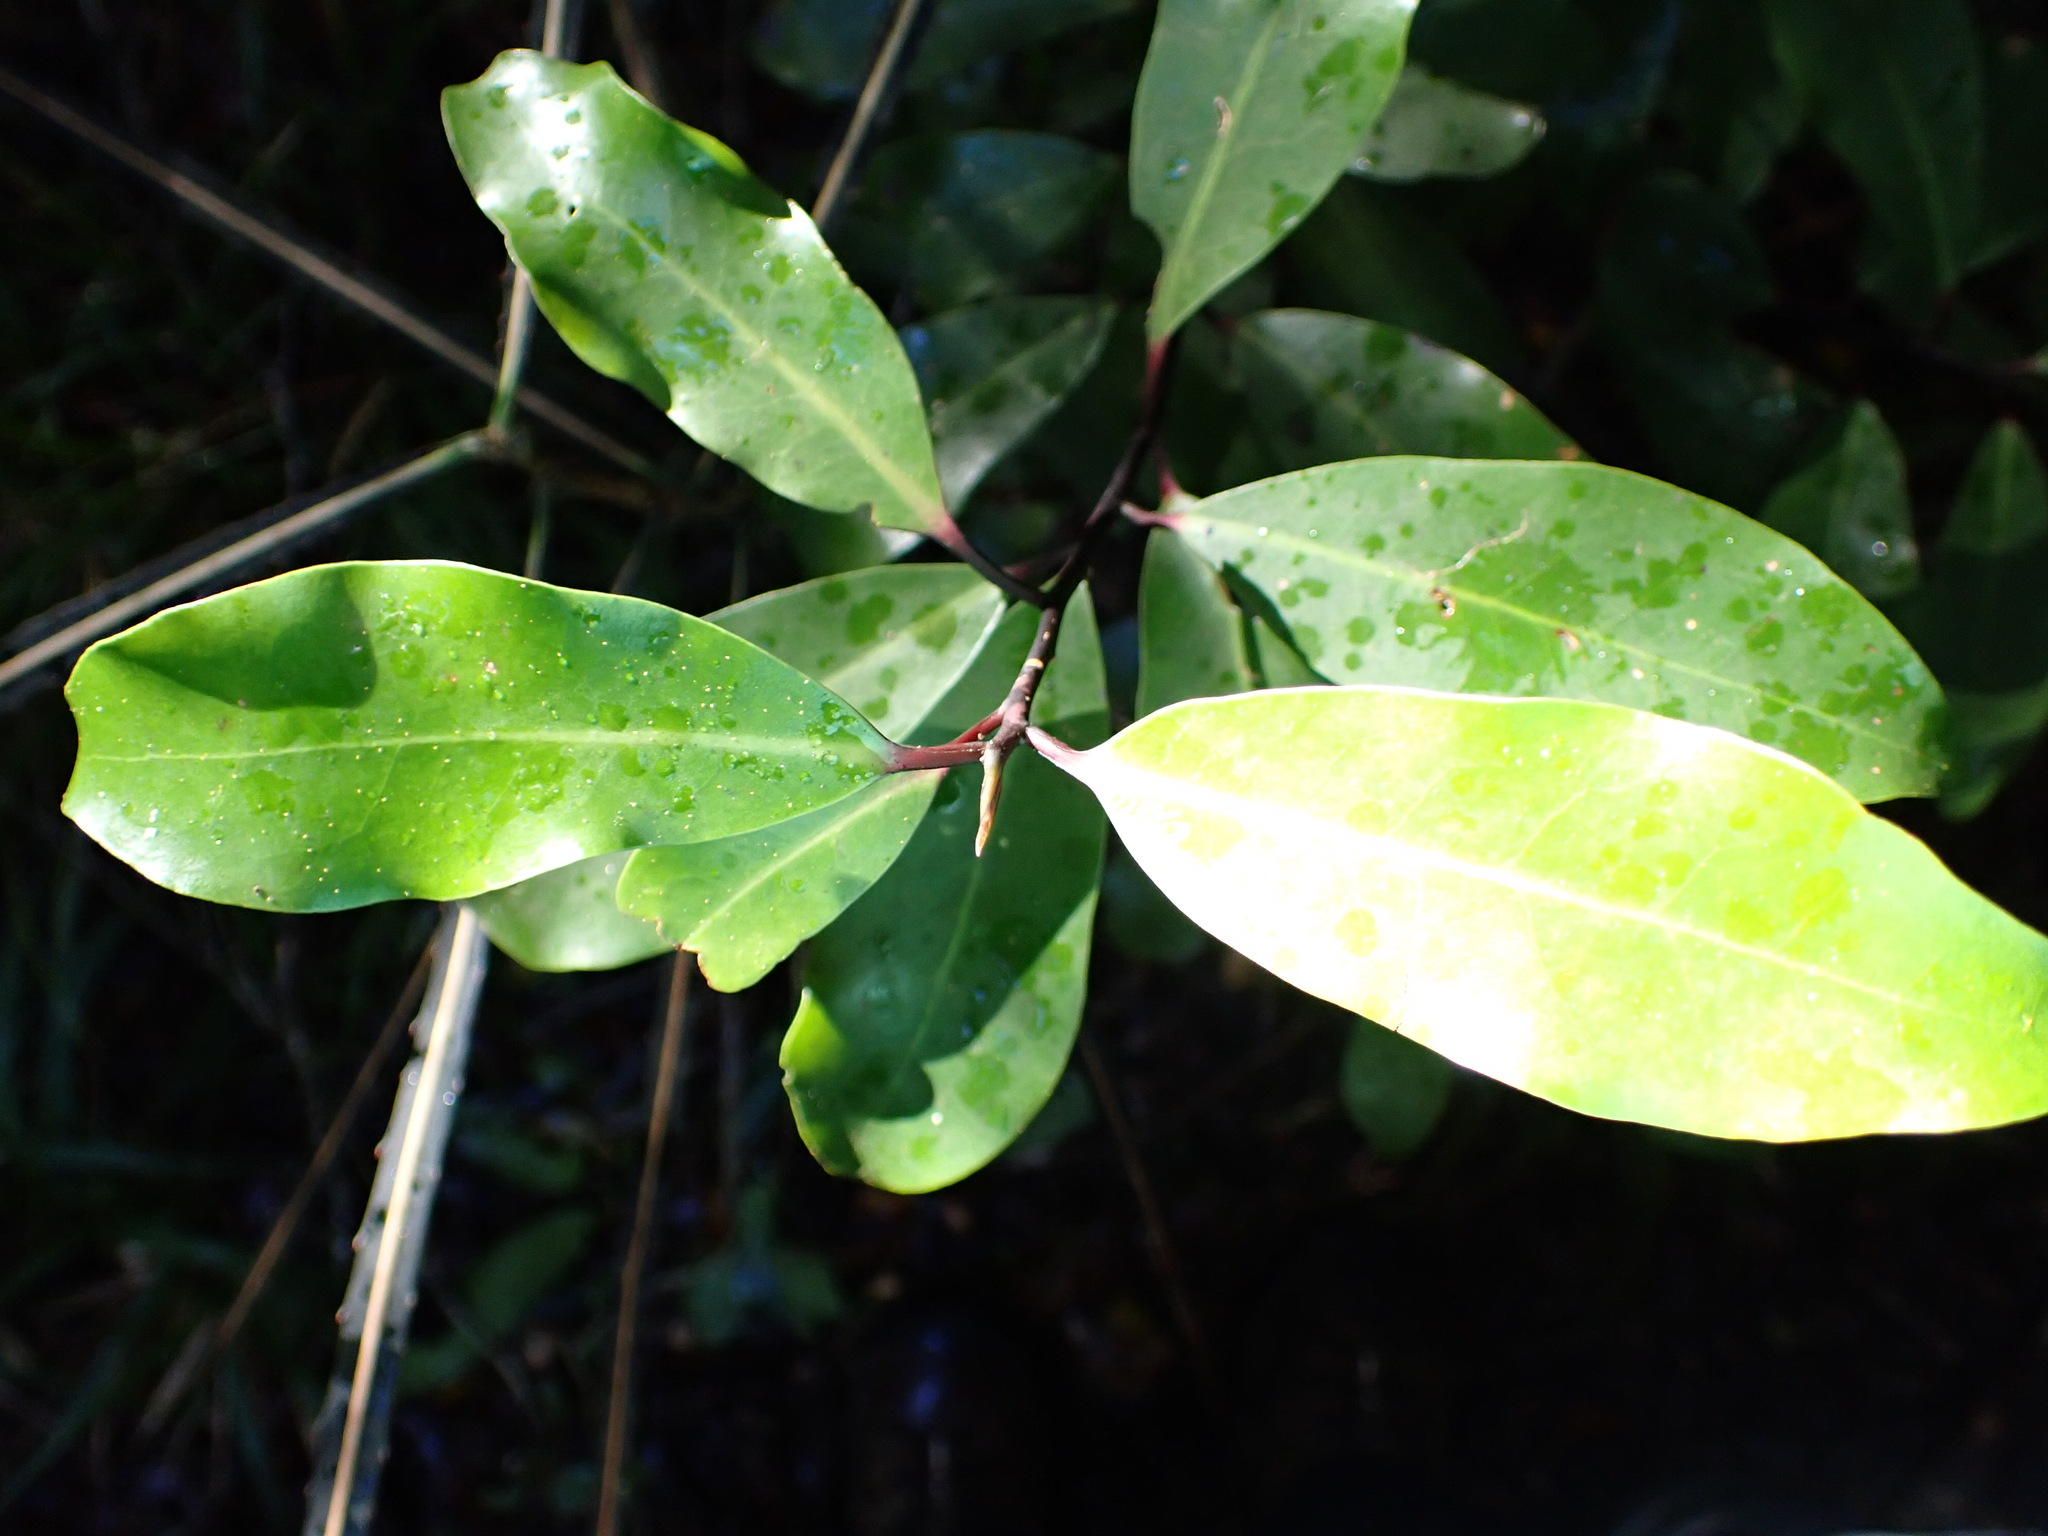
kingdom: Plantae
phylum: Tracheophyta
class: Magnoliopsida
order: Canellales
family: Winteraceae
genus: Pseudowintera
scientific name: Pseudowintera axillaris
